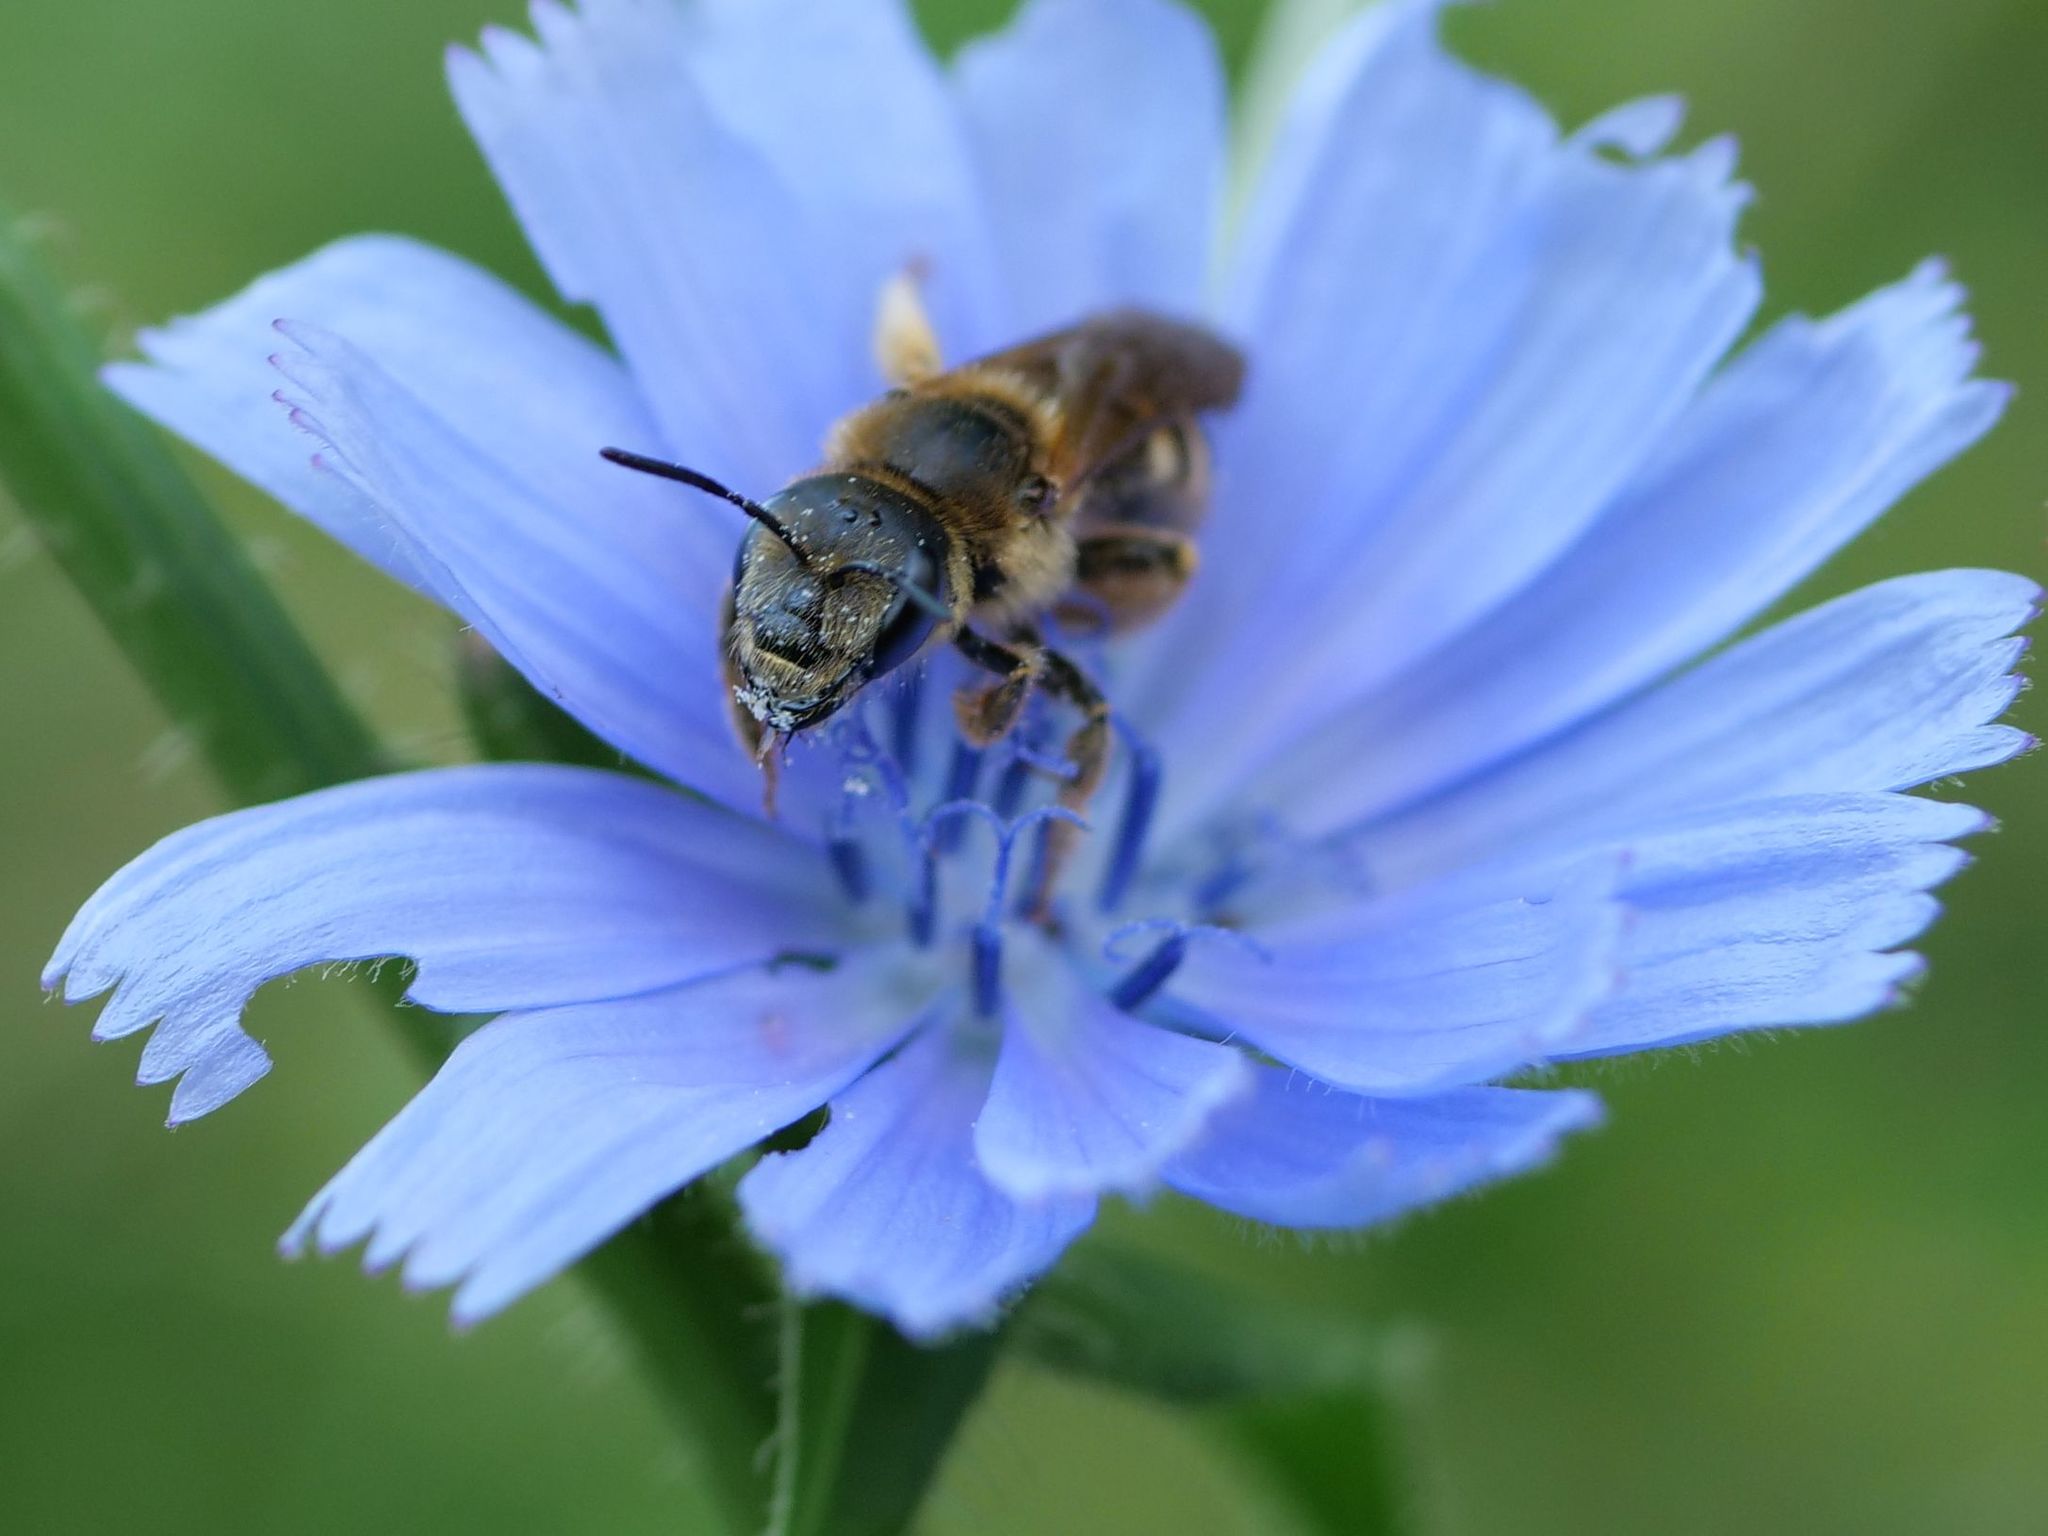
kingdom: Animalia
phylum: Arthropoda
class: Insecta
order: Hymenoptera
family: Halictidae
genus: Halictus
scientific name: Halictus scabiosae
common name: Great banded furrow bee
